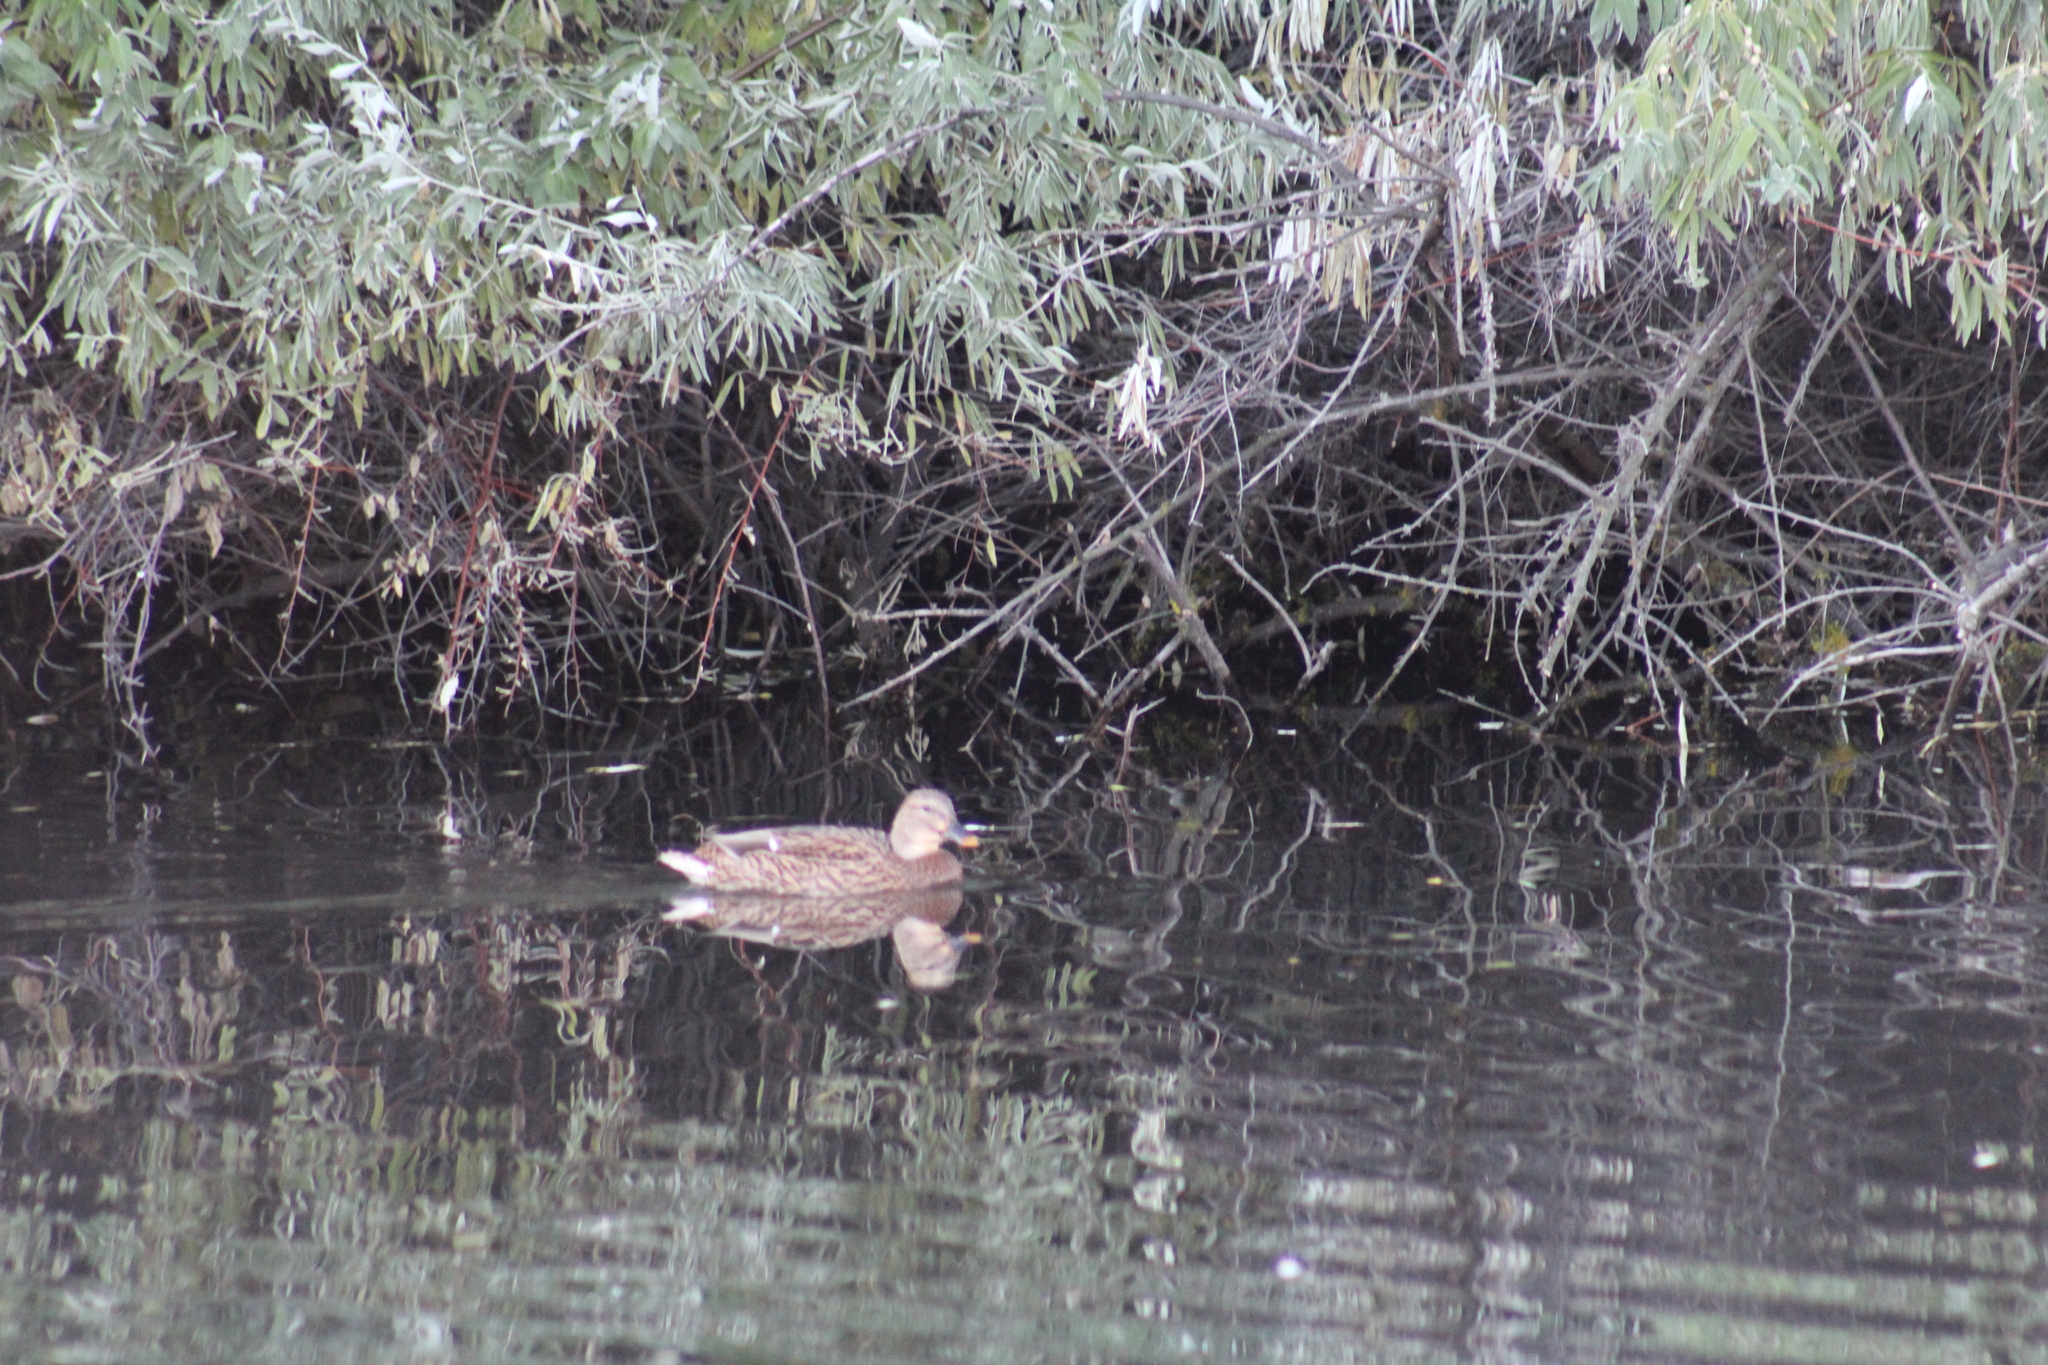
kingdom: Animalia
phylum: Chordata
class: Aves
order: Anseriformes
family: Anatidae
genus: Anas
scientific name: Anas platyrhynchos
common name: Mallard
